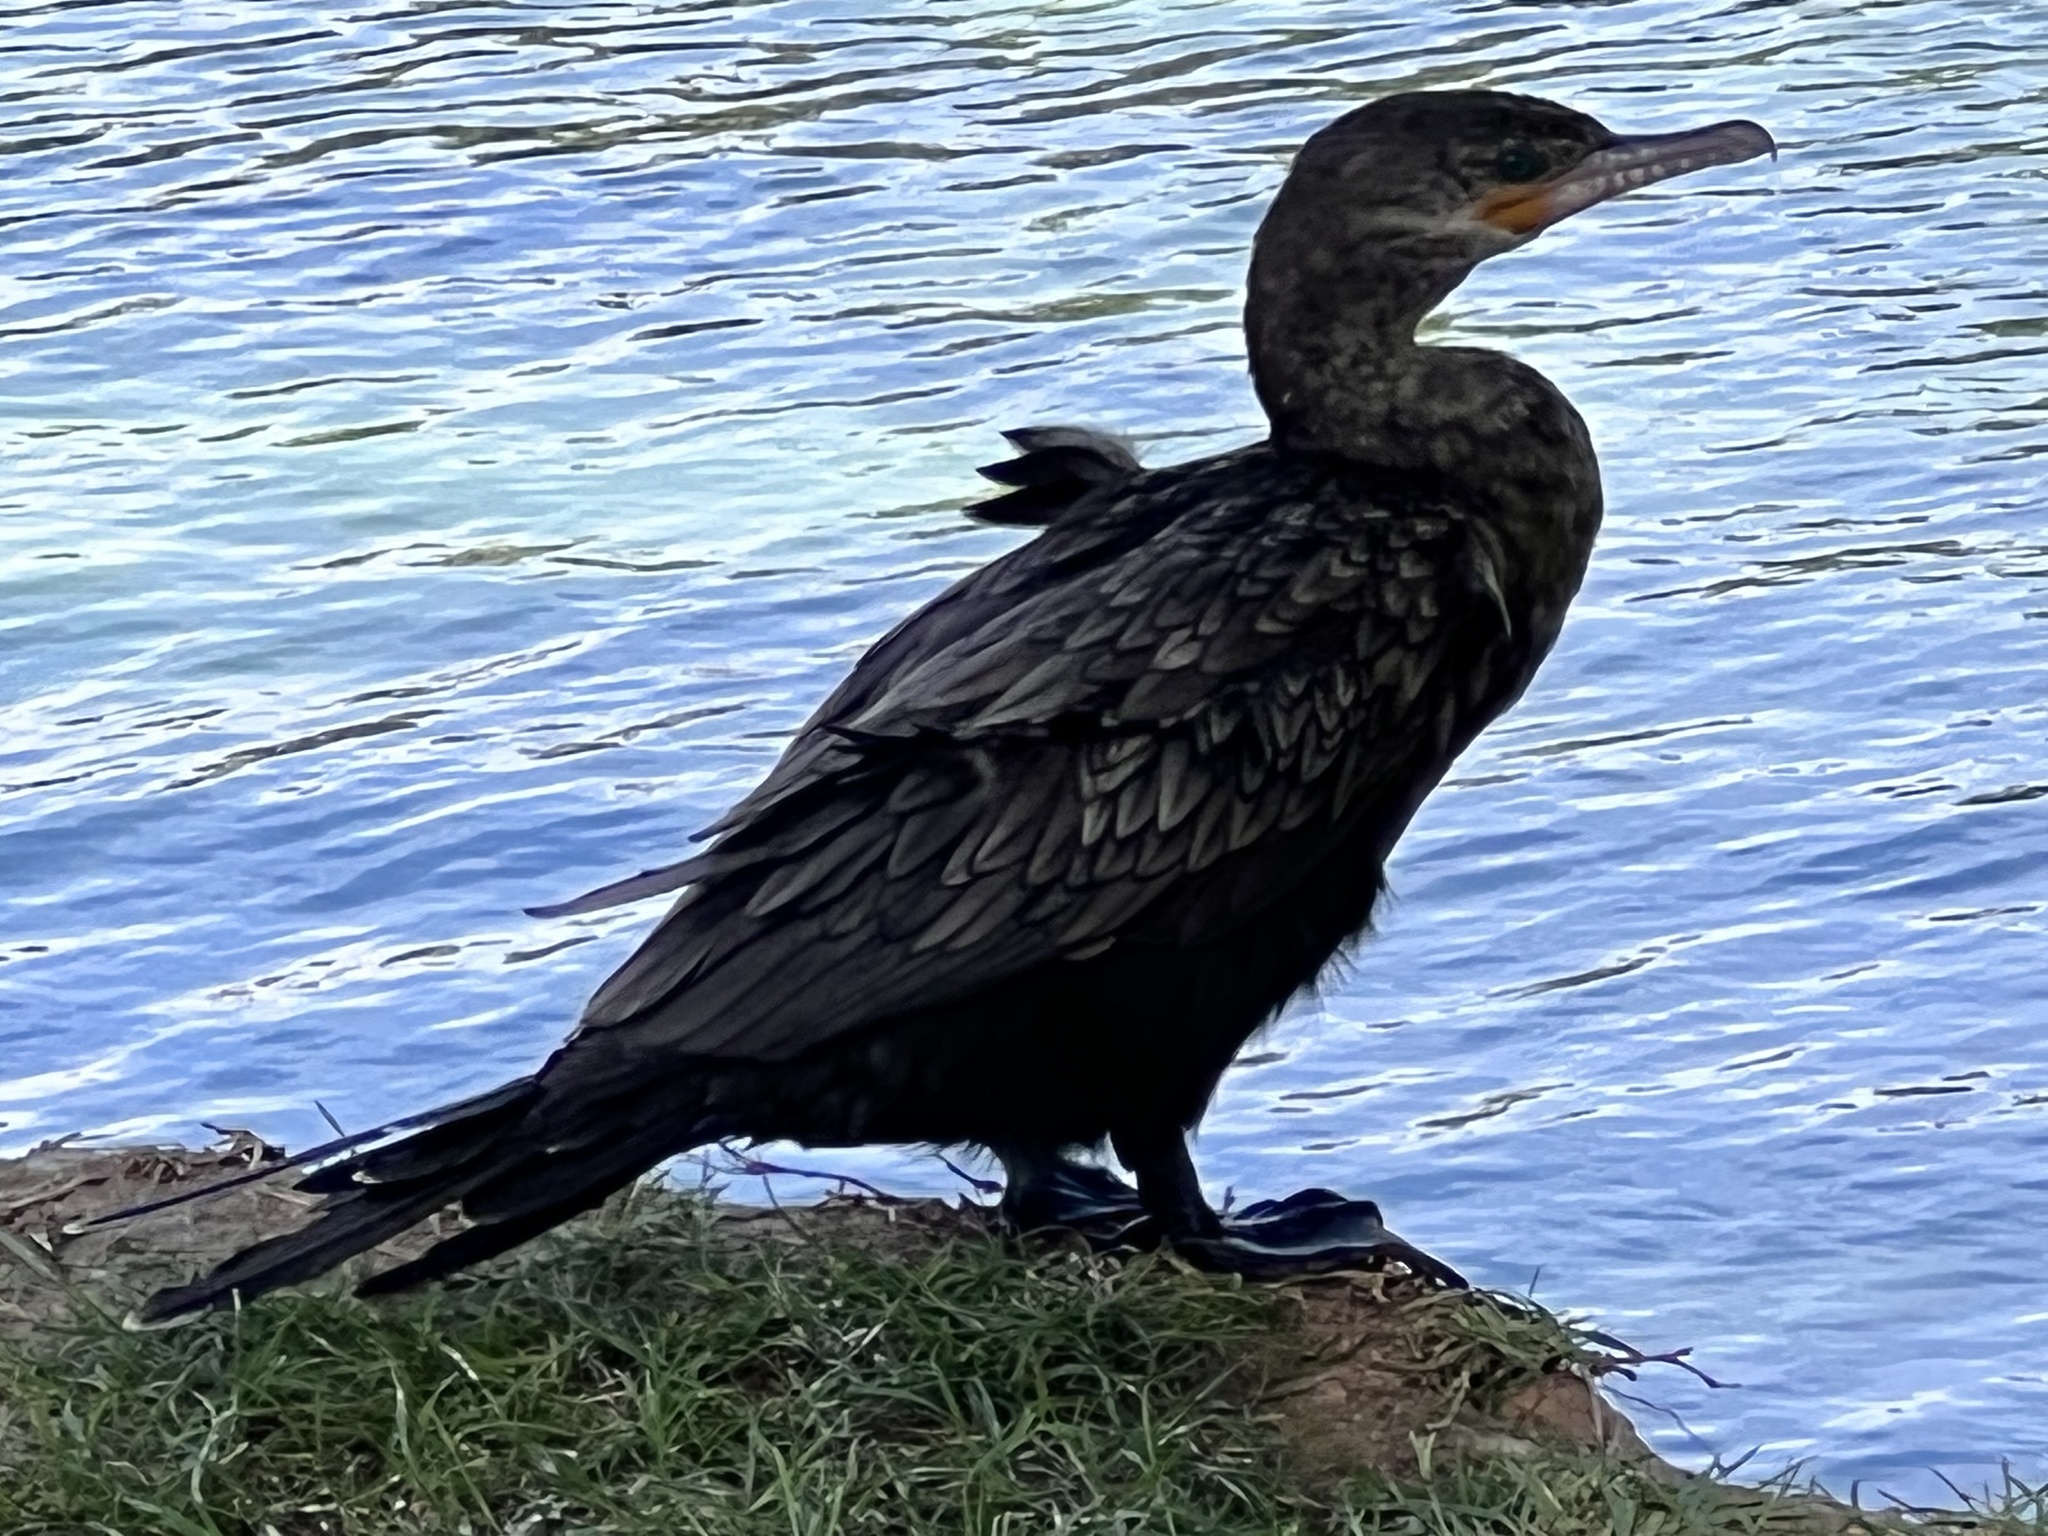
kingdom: Animalia
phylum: Chordata
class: Aves
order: Suliformes
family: Phalacrocoracidae
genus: Phalacrocorax
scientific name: Phalacrocorax brasilianus
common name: Neotropic cormorant
